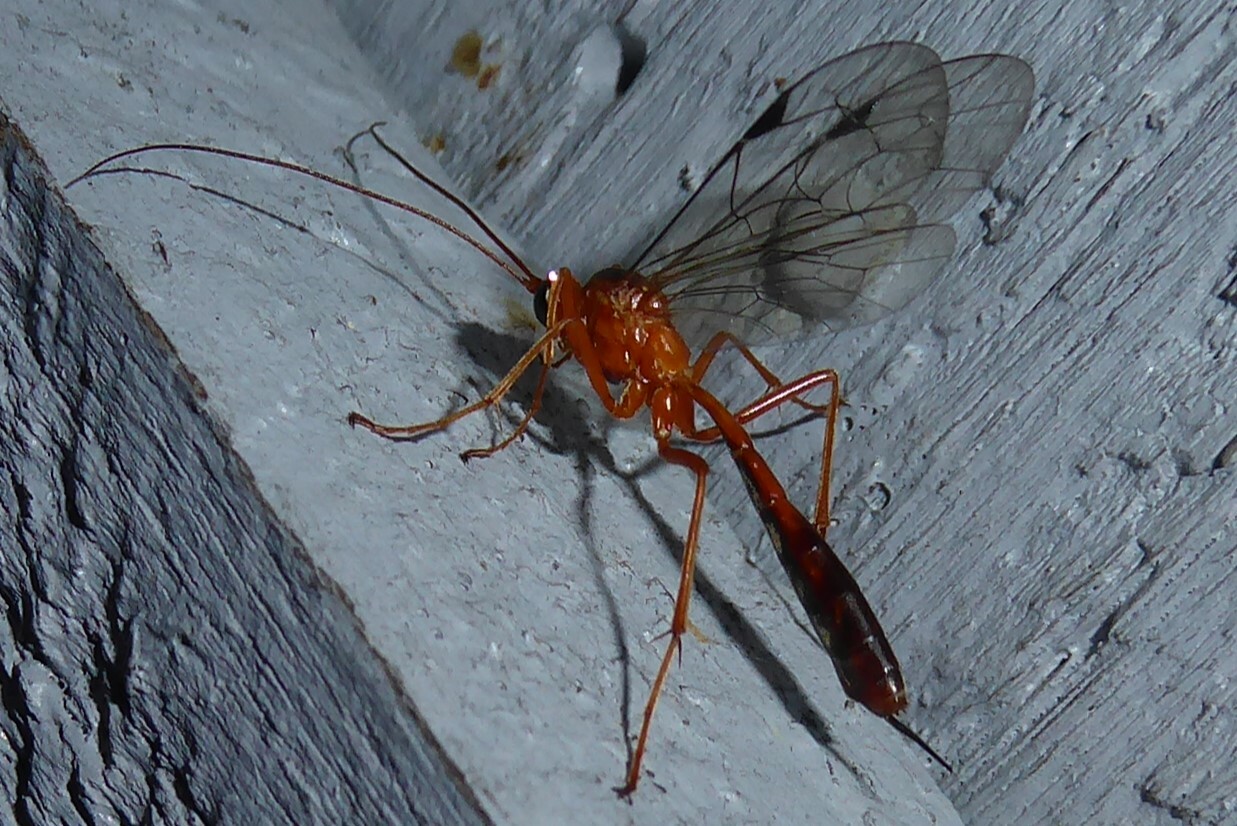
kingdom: Animalia
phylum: Arthropoda
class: Insecta
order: Hymenoptera
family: Ichneumonidae
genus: Netelia
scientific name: Netelia ephippiata
